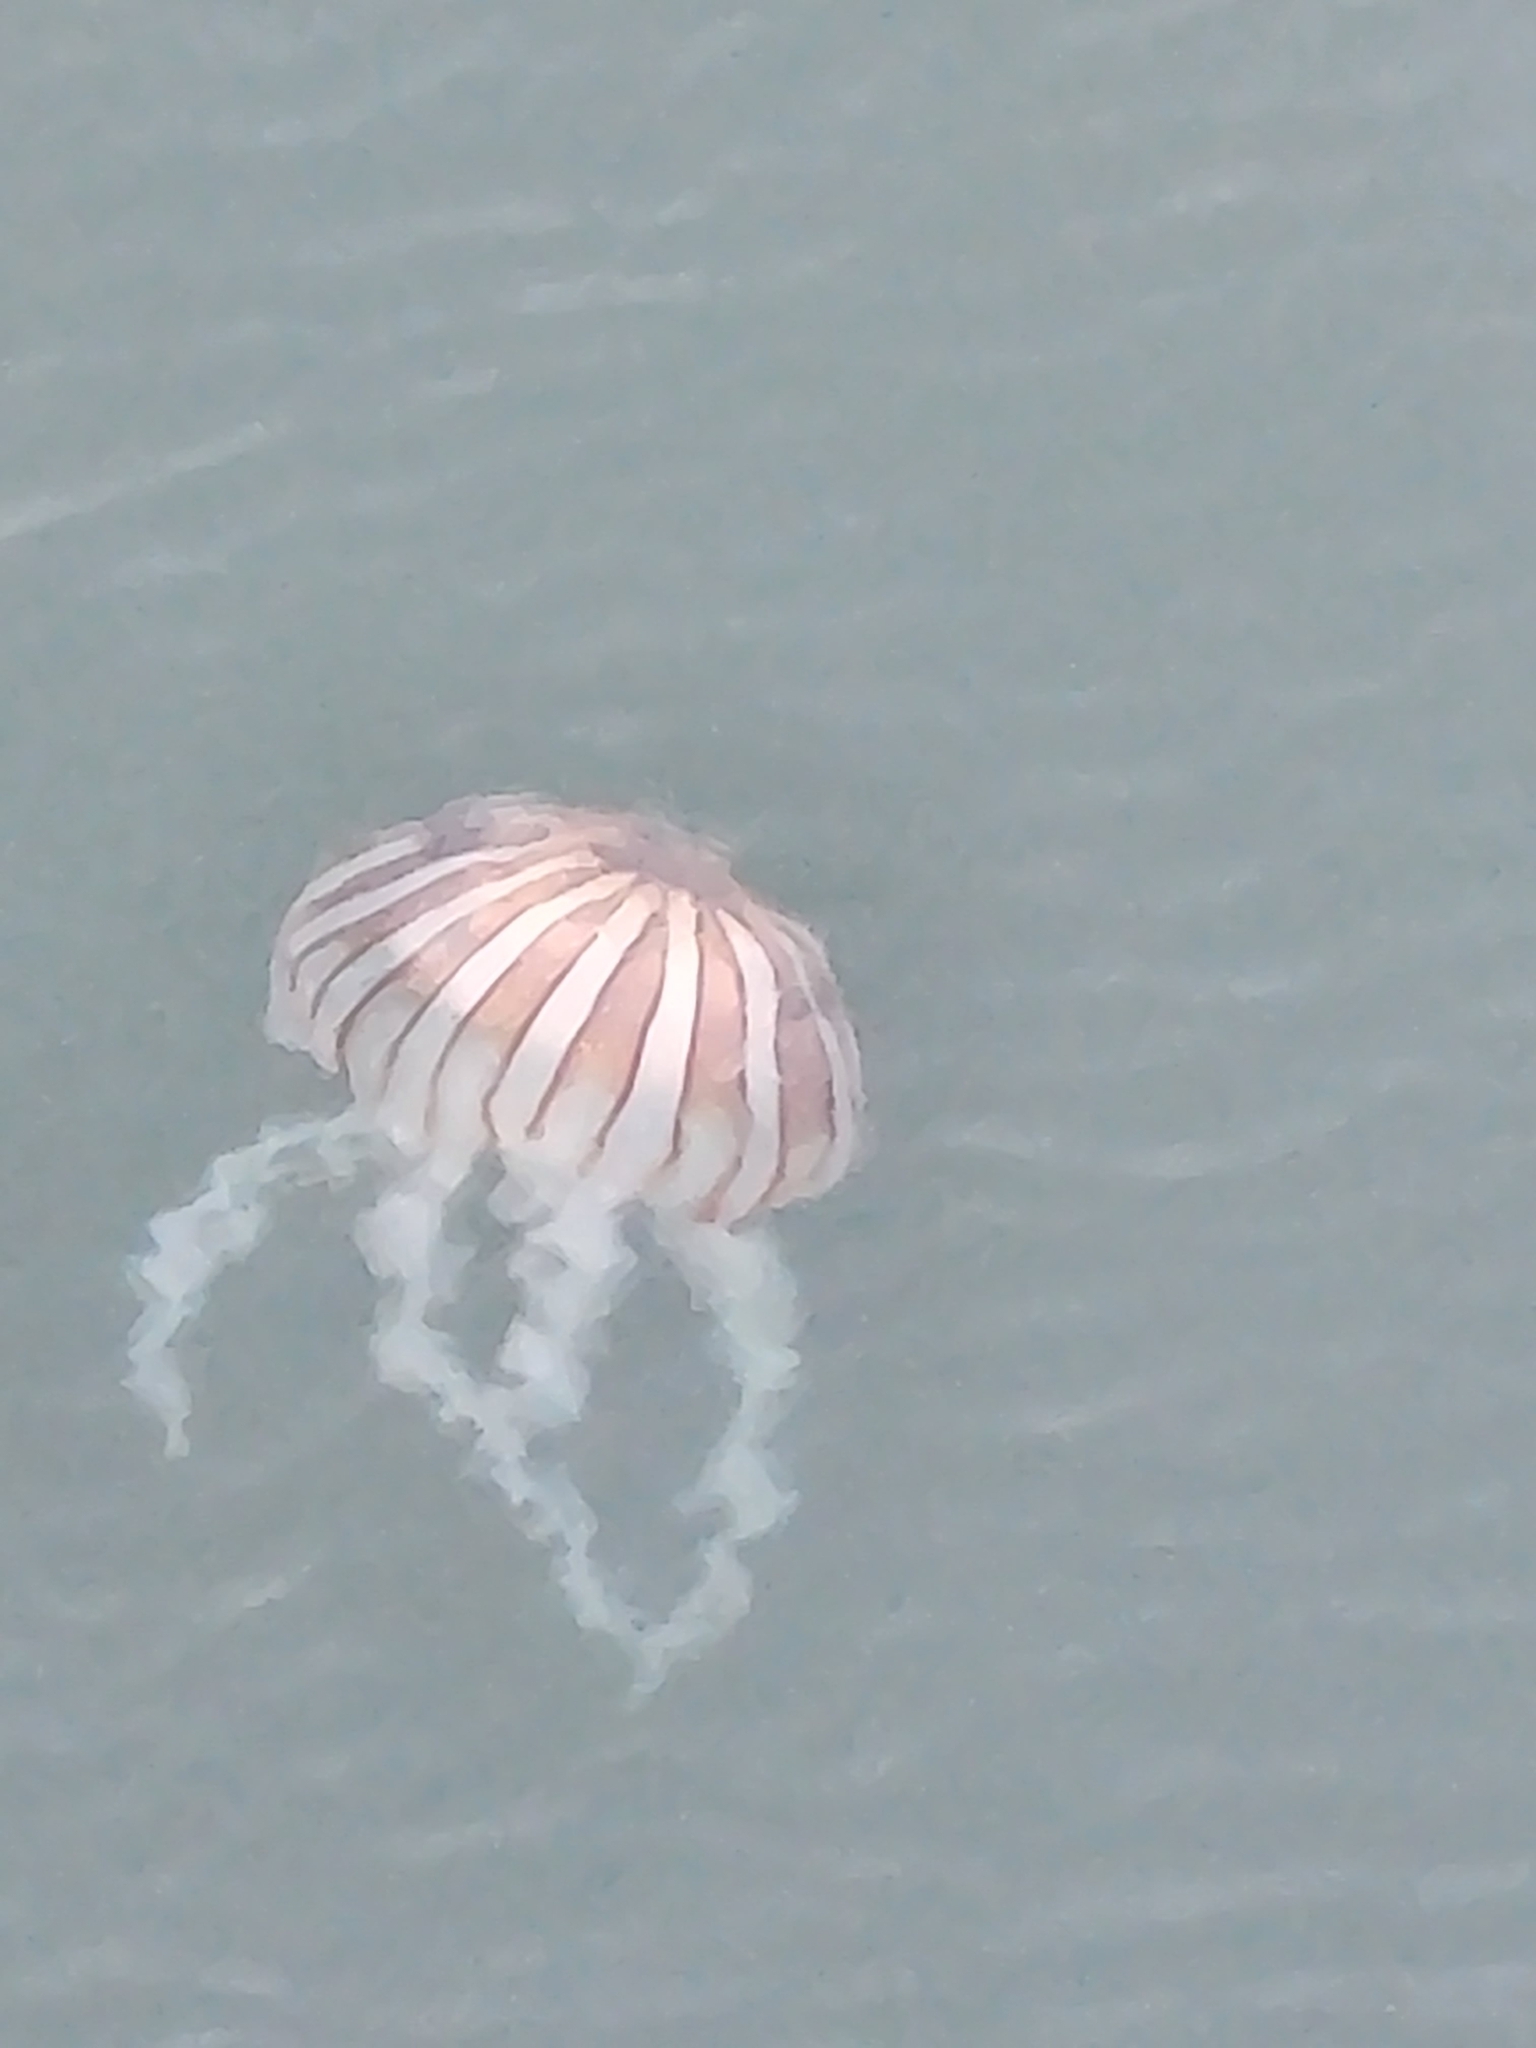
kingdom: Animalia
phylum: Cnidaria
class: Scyphozoa
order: Semaeostomeae
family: Pelagiidae
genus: Chrysaora
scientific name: Chrysaora plocamia
